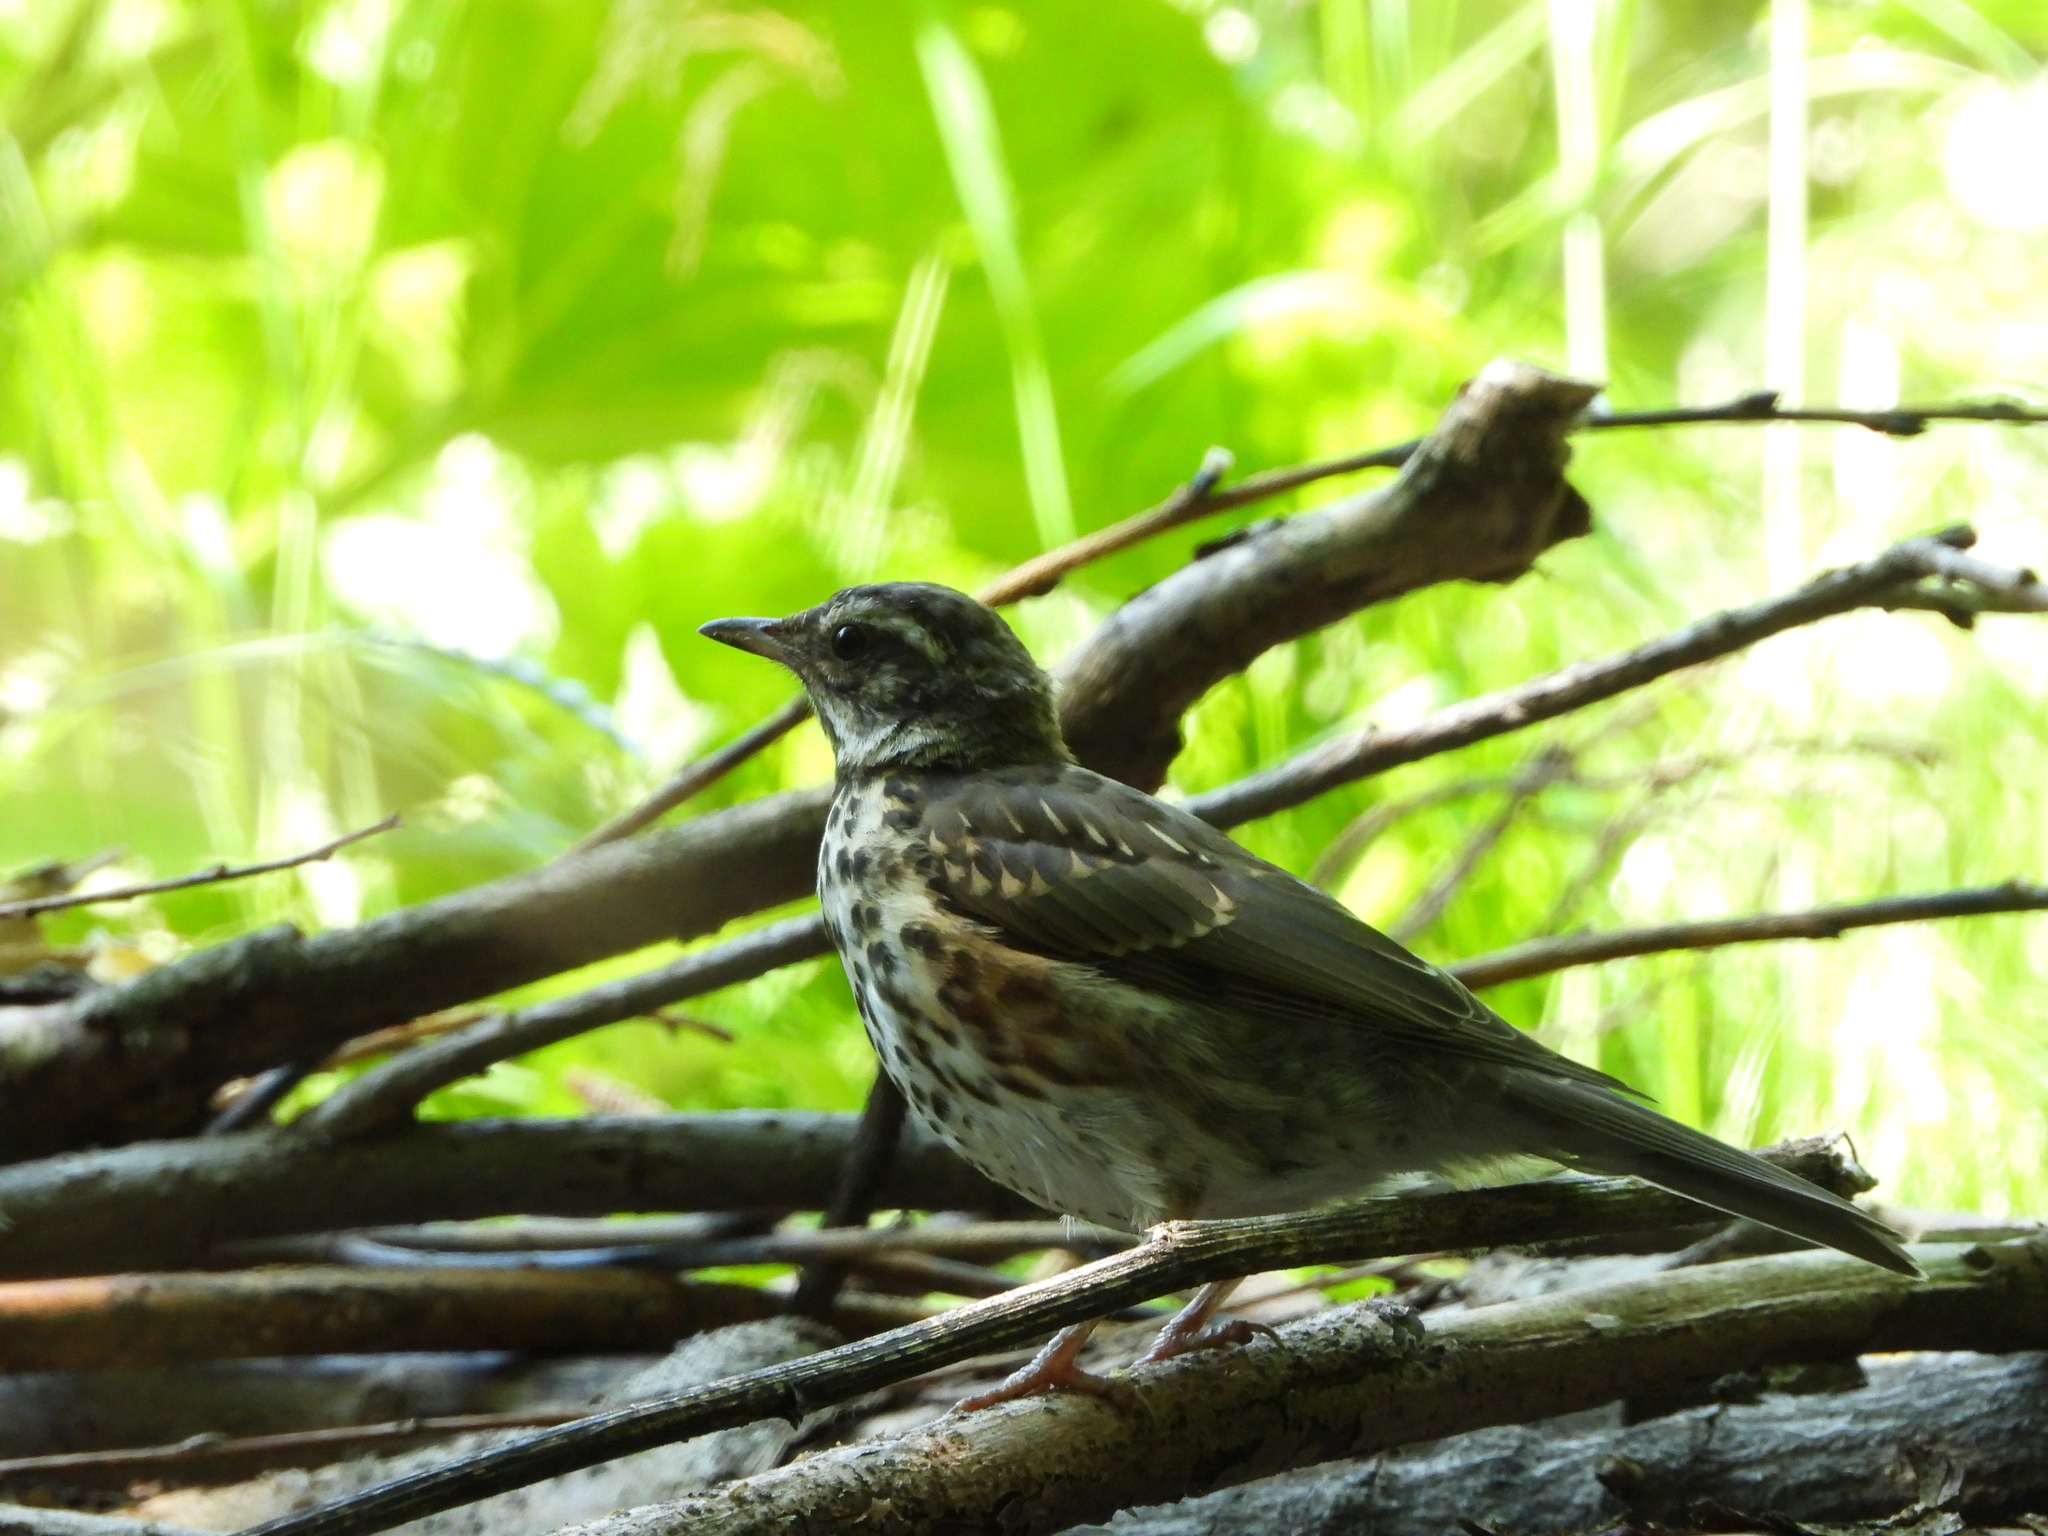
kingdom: Animalia
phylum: Chordata
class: Aves
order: Passeriformes
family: Turdidae
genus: Turdus
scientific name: Turdus iliacus
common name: Redwing
